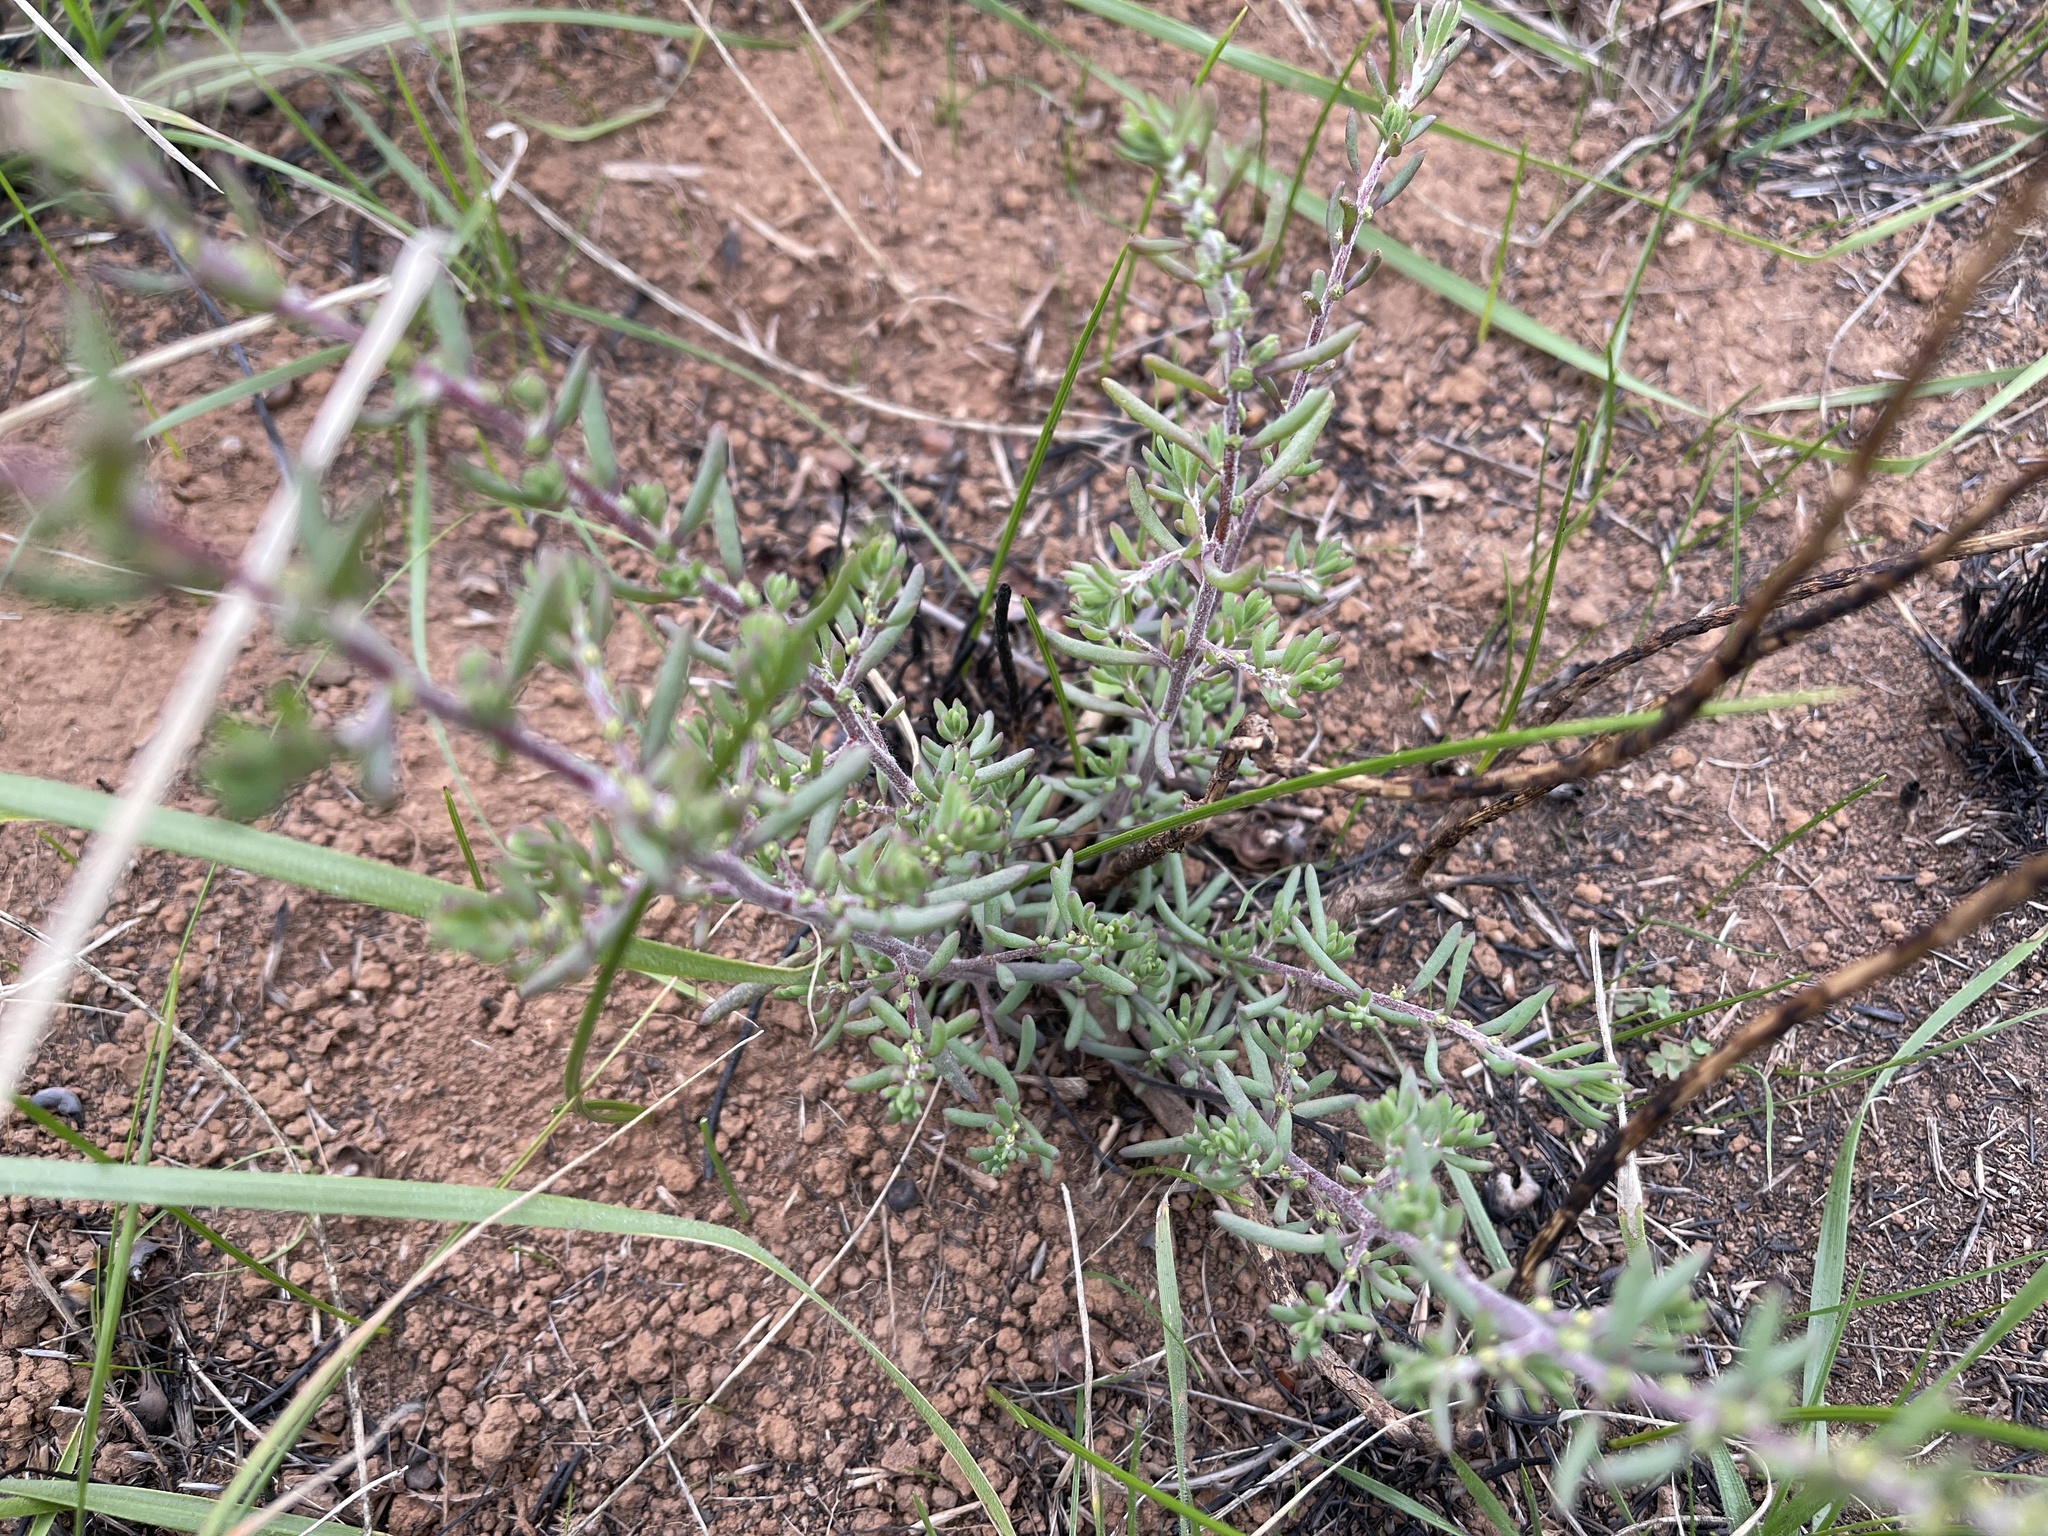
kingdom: Plantae
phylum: Tracheophyta
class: Magnoliopsida
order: Caryophyllales
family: Amaranthaceae
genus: Enchylaena
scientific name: Enchylaena tomentosa
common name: Ruby saltbush
